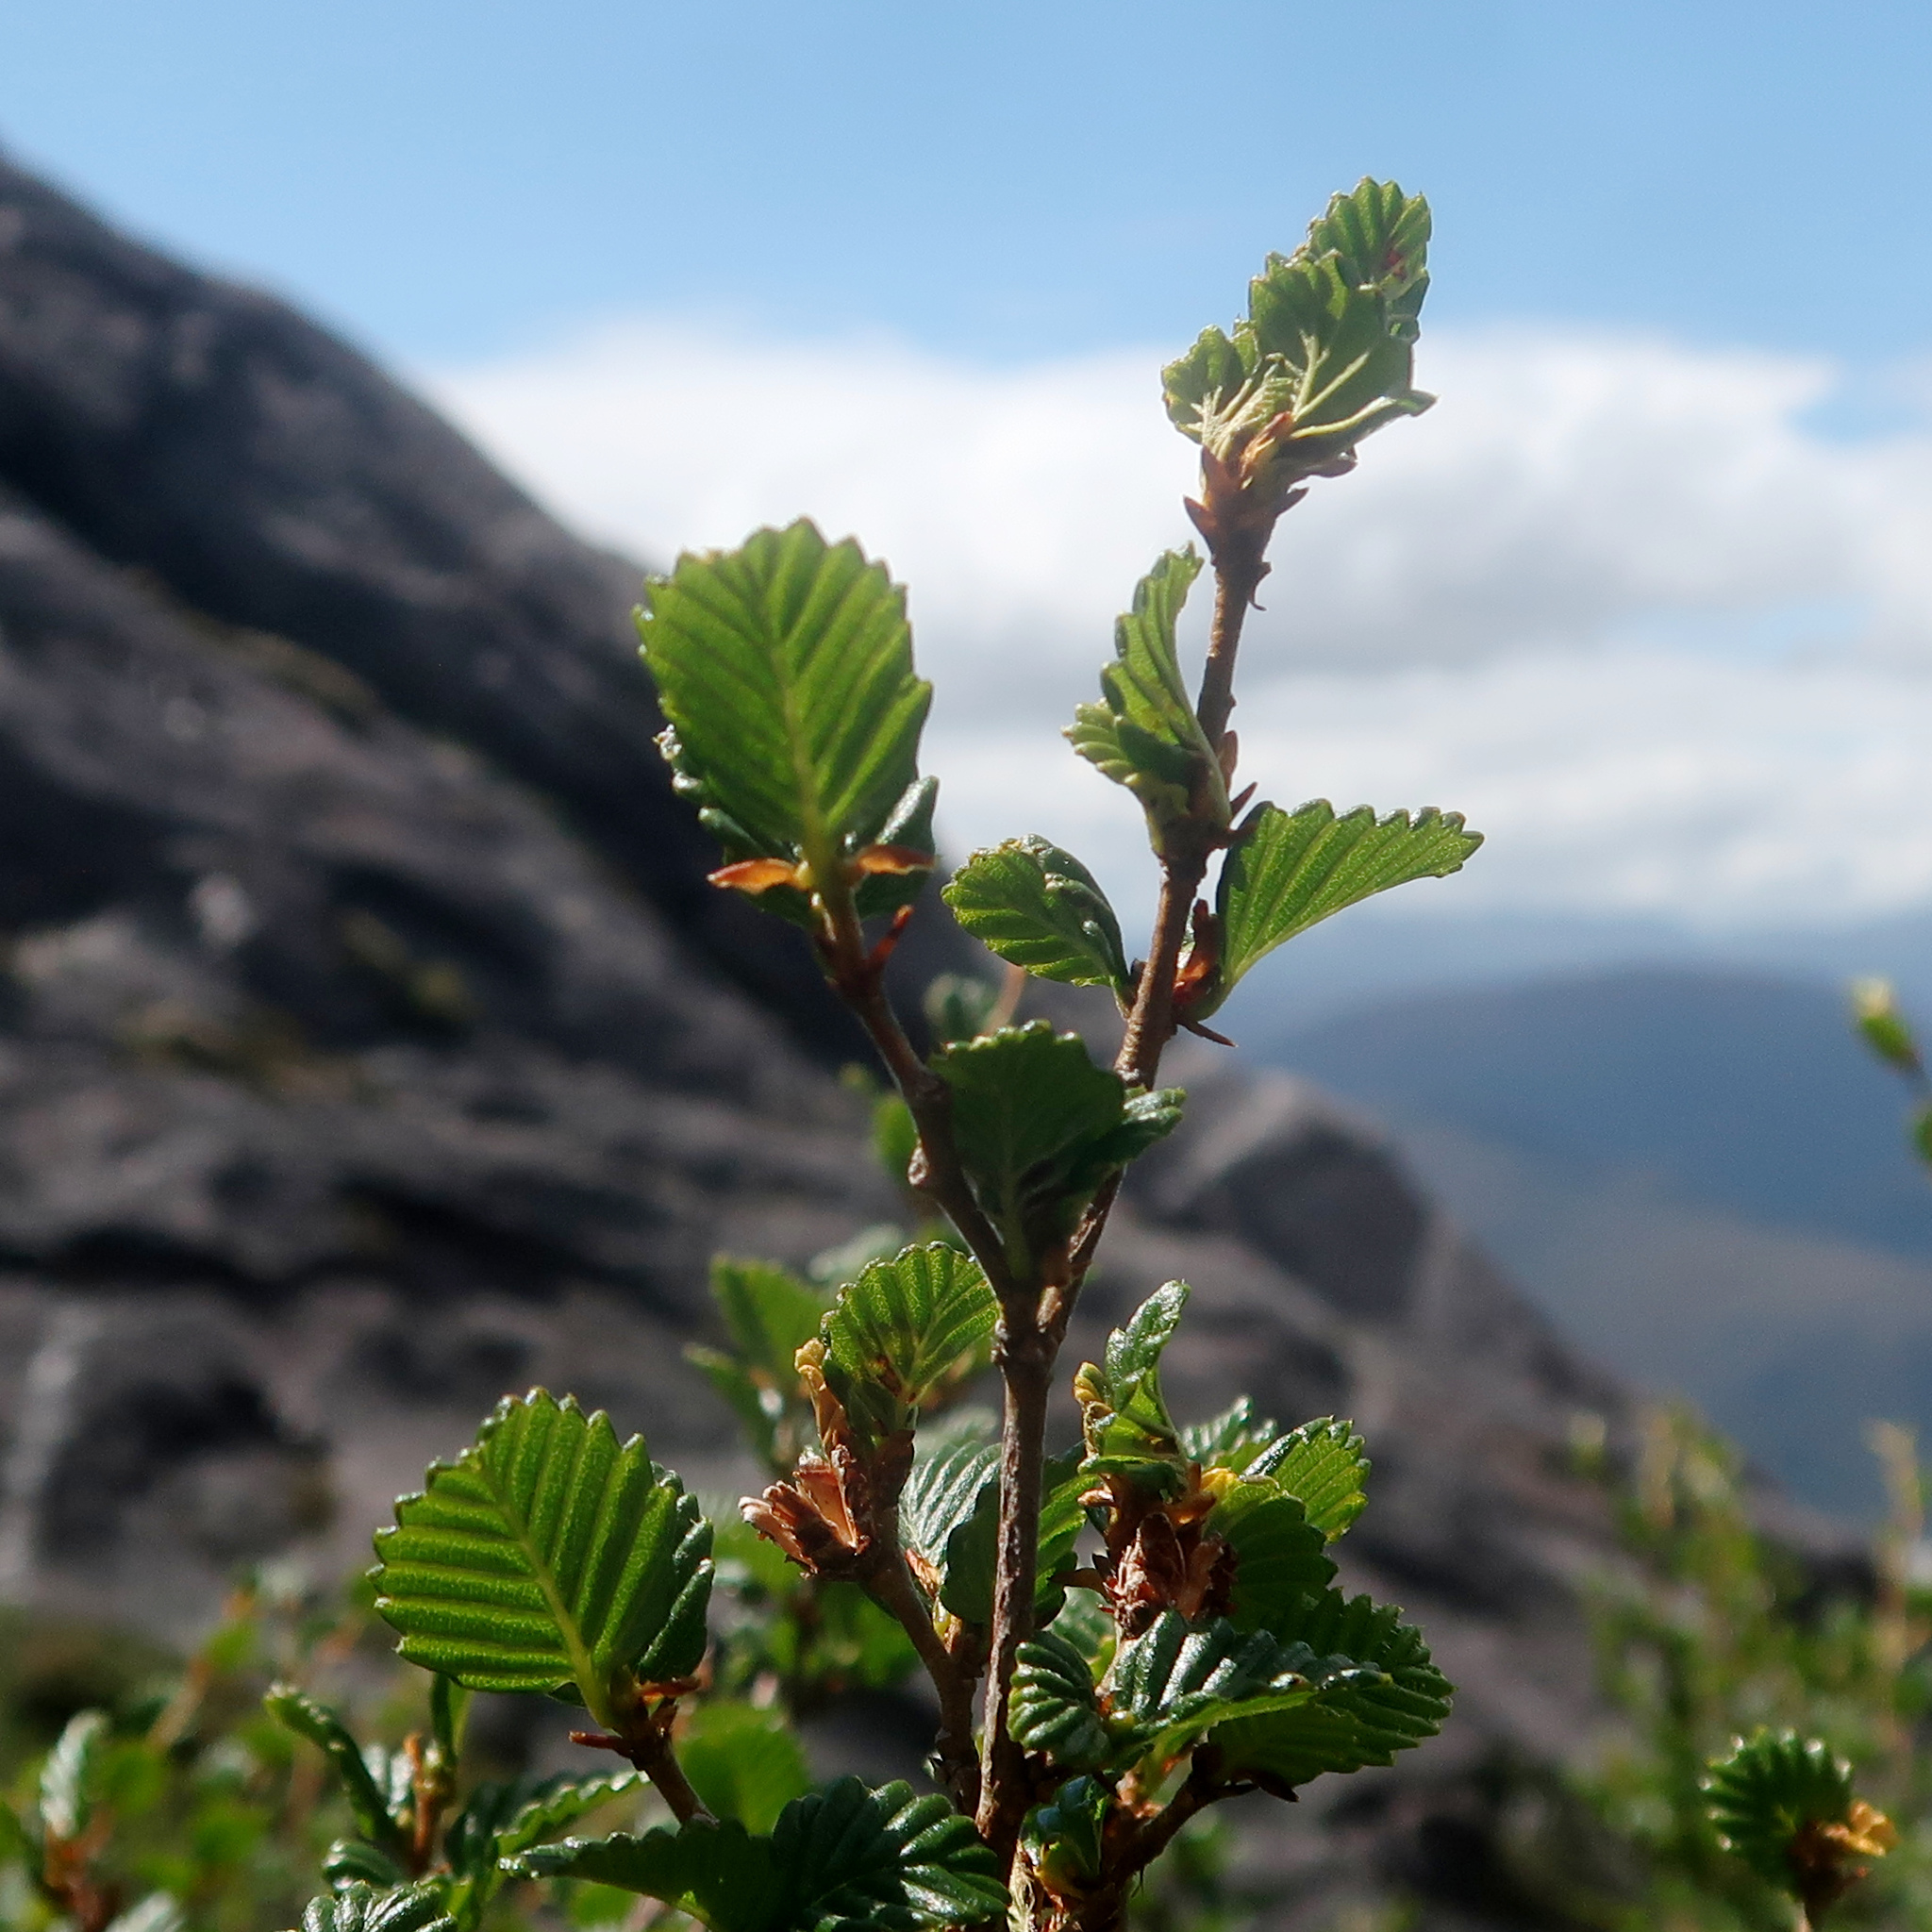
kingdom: Plantae
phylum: Tracheophyta
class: Magnoliopsida
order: Fagales
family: Nothofagaceae
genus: Nothofagus
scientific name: Nothofagus gunnii
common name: Tanglefoot
